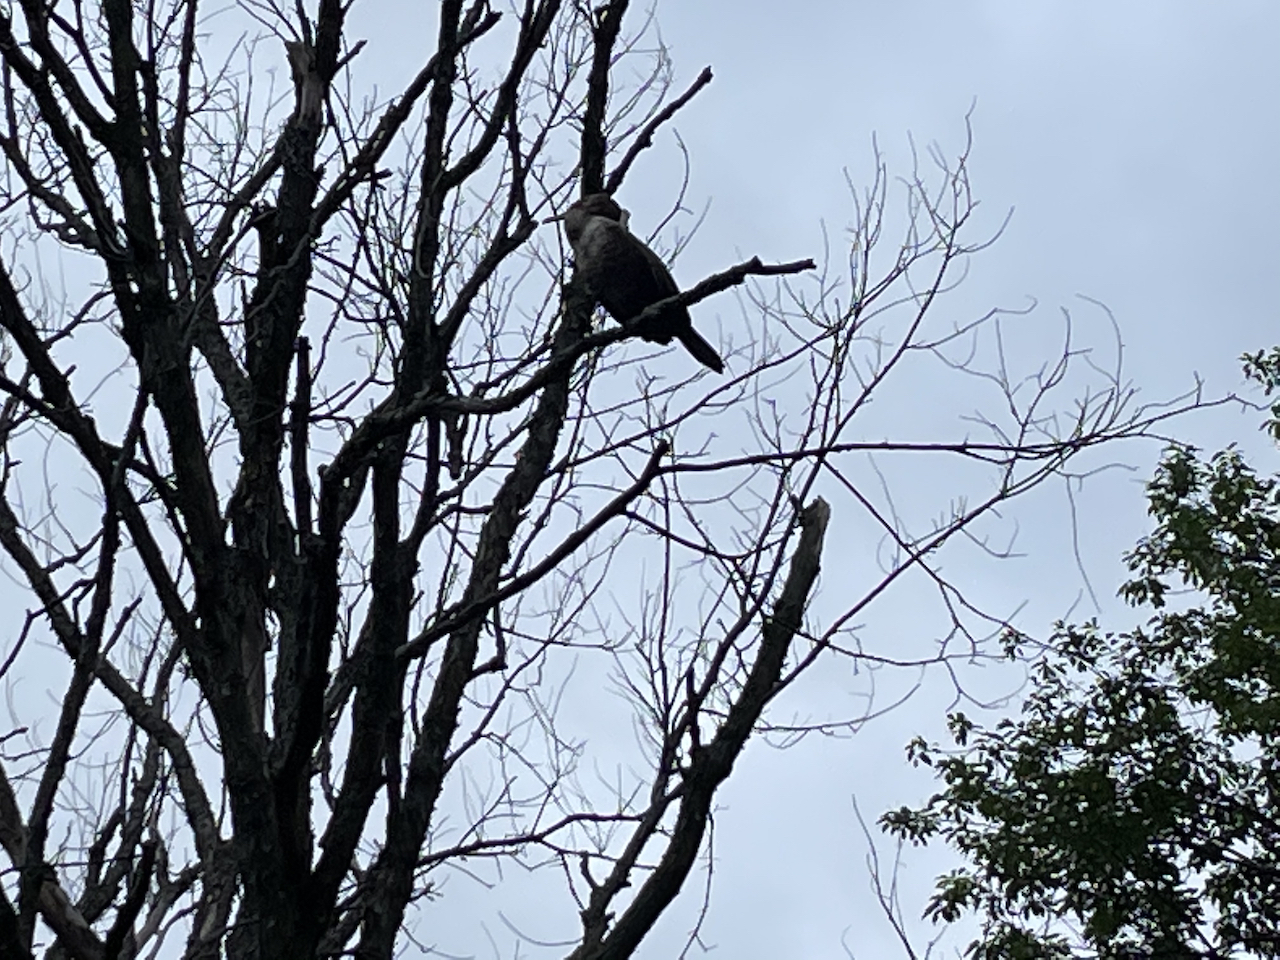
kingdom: Animalia
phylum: Chordata
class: Aves
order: Suliformes
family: Phalacrocoracidae
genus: Phalacrocorax
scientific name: Phalacrocorax auritus
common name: Double-crested cormorant
